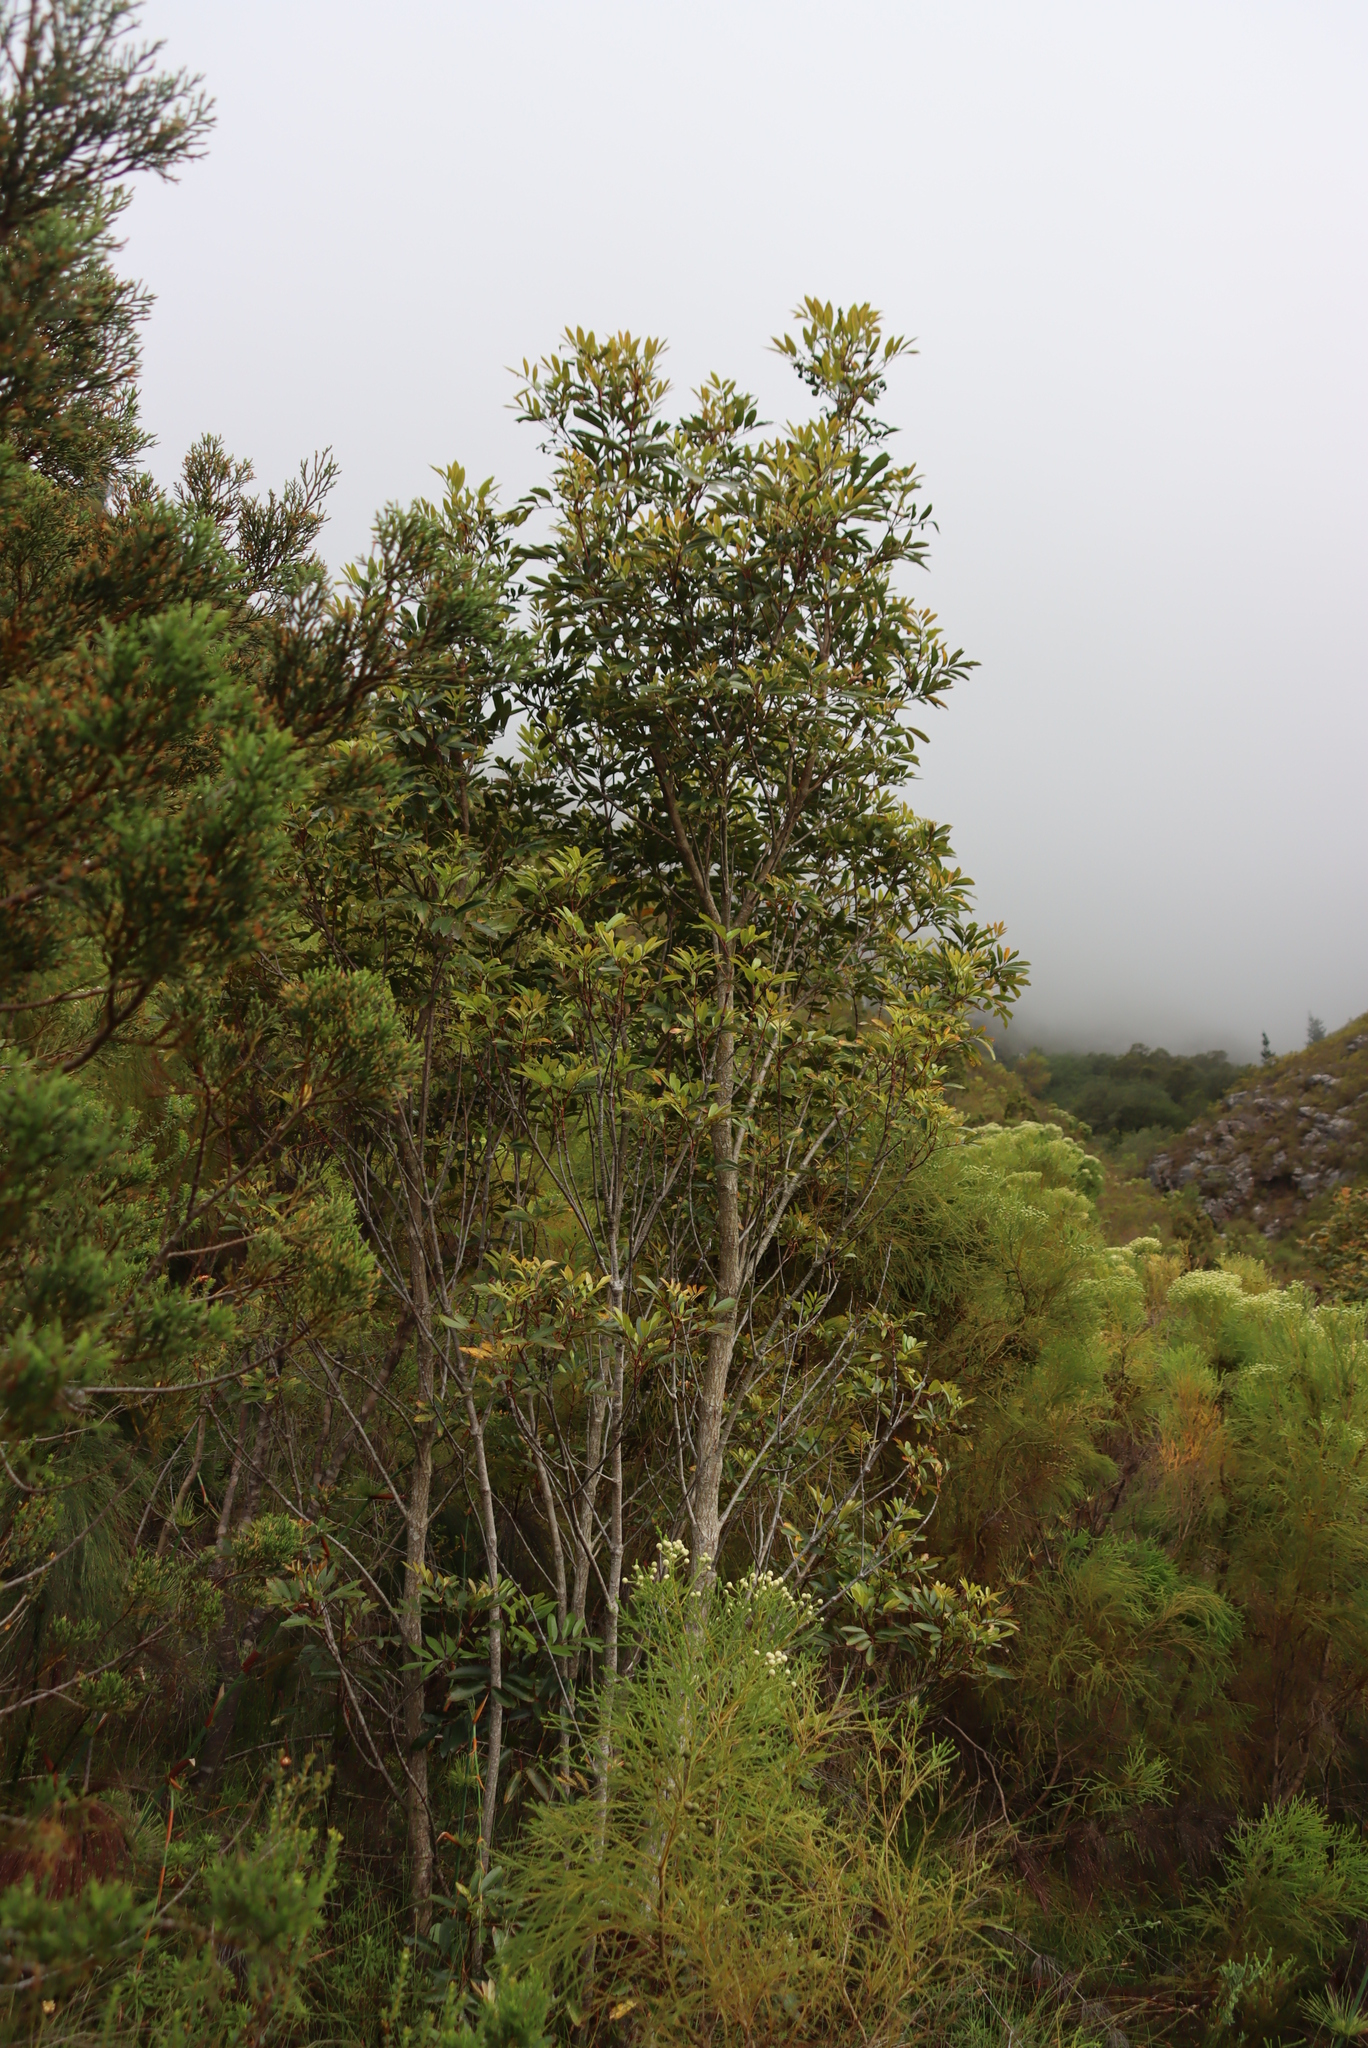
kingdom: Plantae
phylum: Tracheophyta
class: Magnoliopsida
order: Oxalidales
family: Cunoniaceae
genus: Cunonia
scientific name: Cunonia capensis
